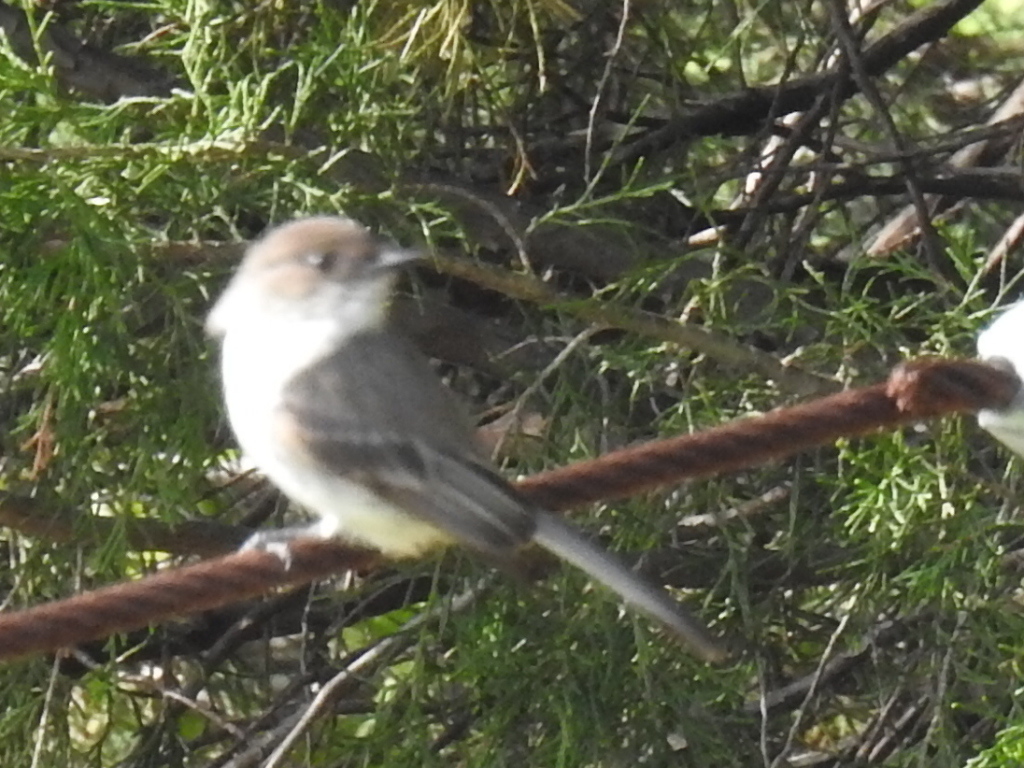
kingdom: Animalia
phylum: Chordata
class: Aves
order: Passeriformes
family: Tyrannidae
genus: Sayornis
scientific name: Sayornis phoebe
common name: Eastern phoebe
